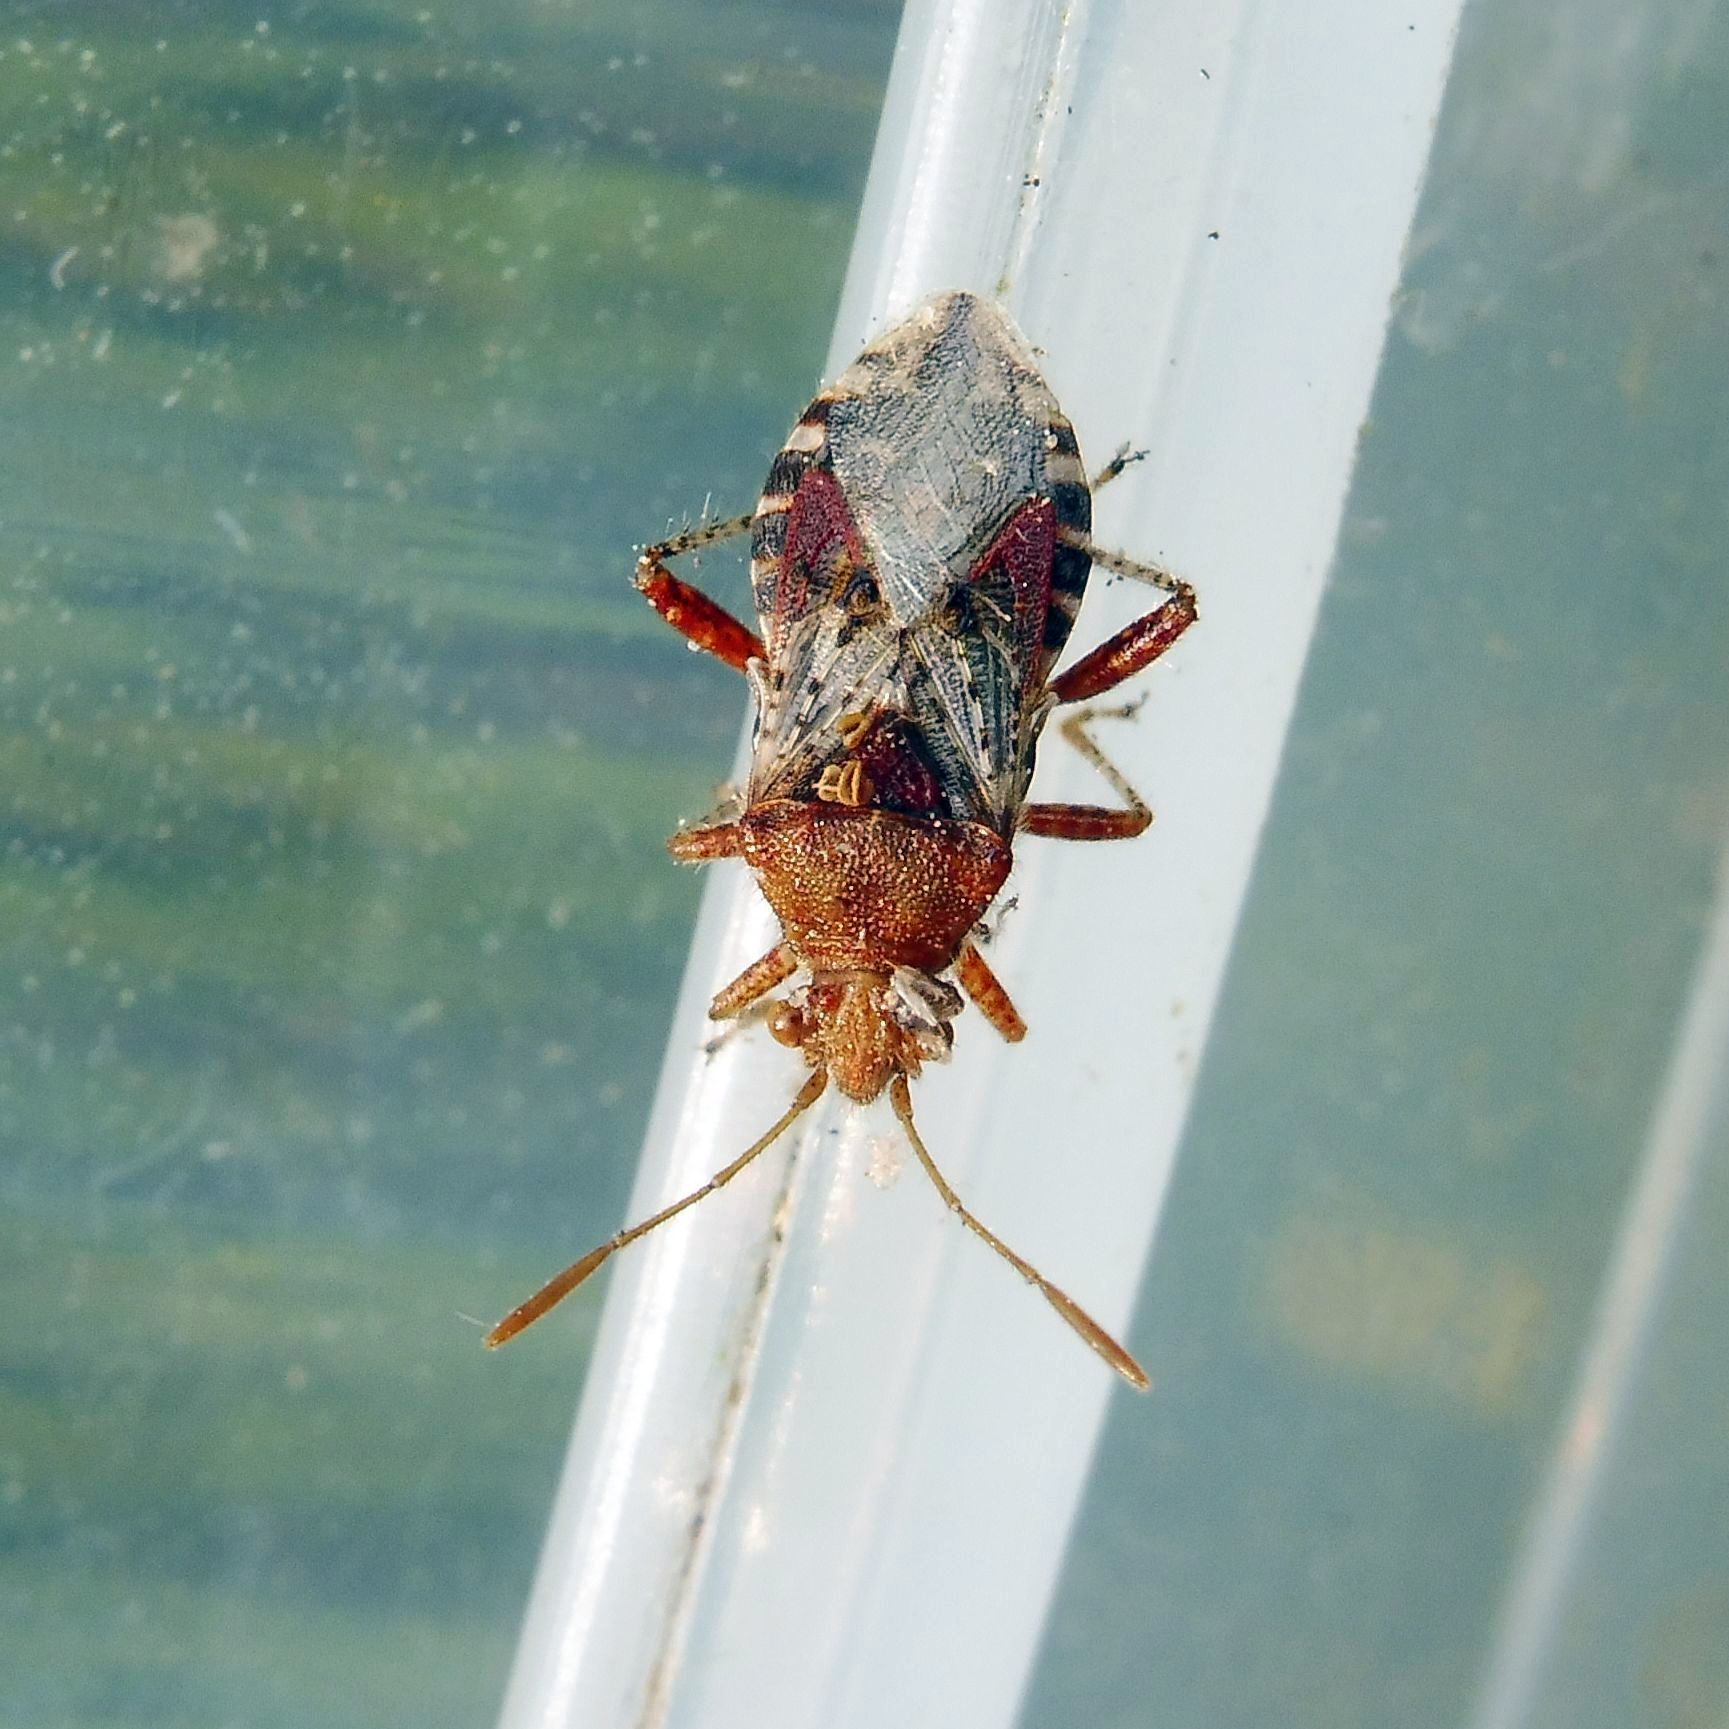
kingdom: Animalia
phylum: Arthropoda
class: Insecta
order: Hemiptera
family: Rhopalidae
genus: Rhopalus
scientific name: Rhopalus subrufus
